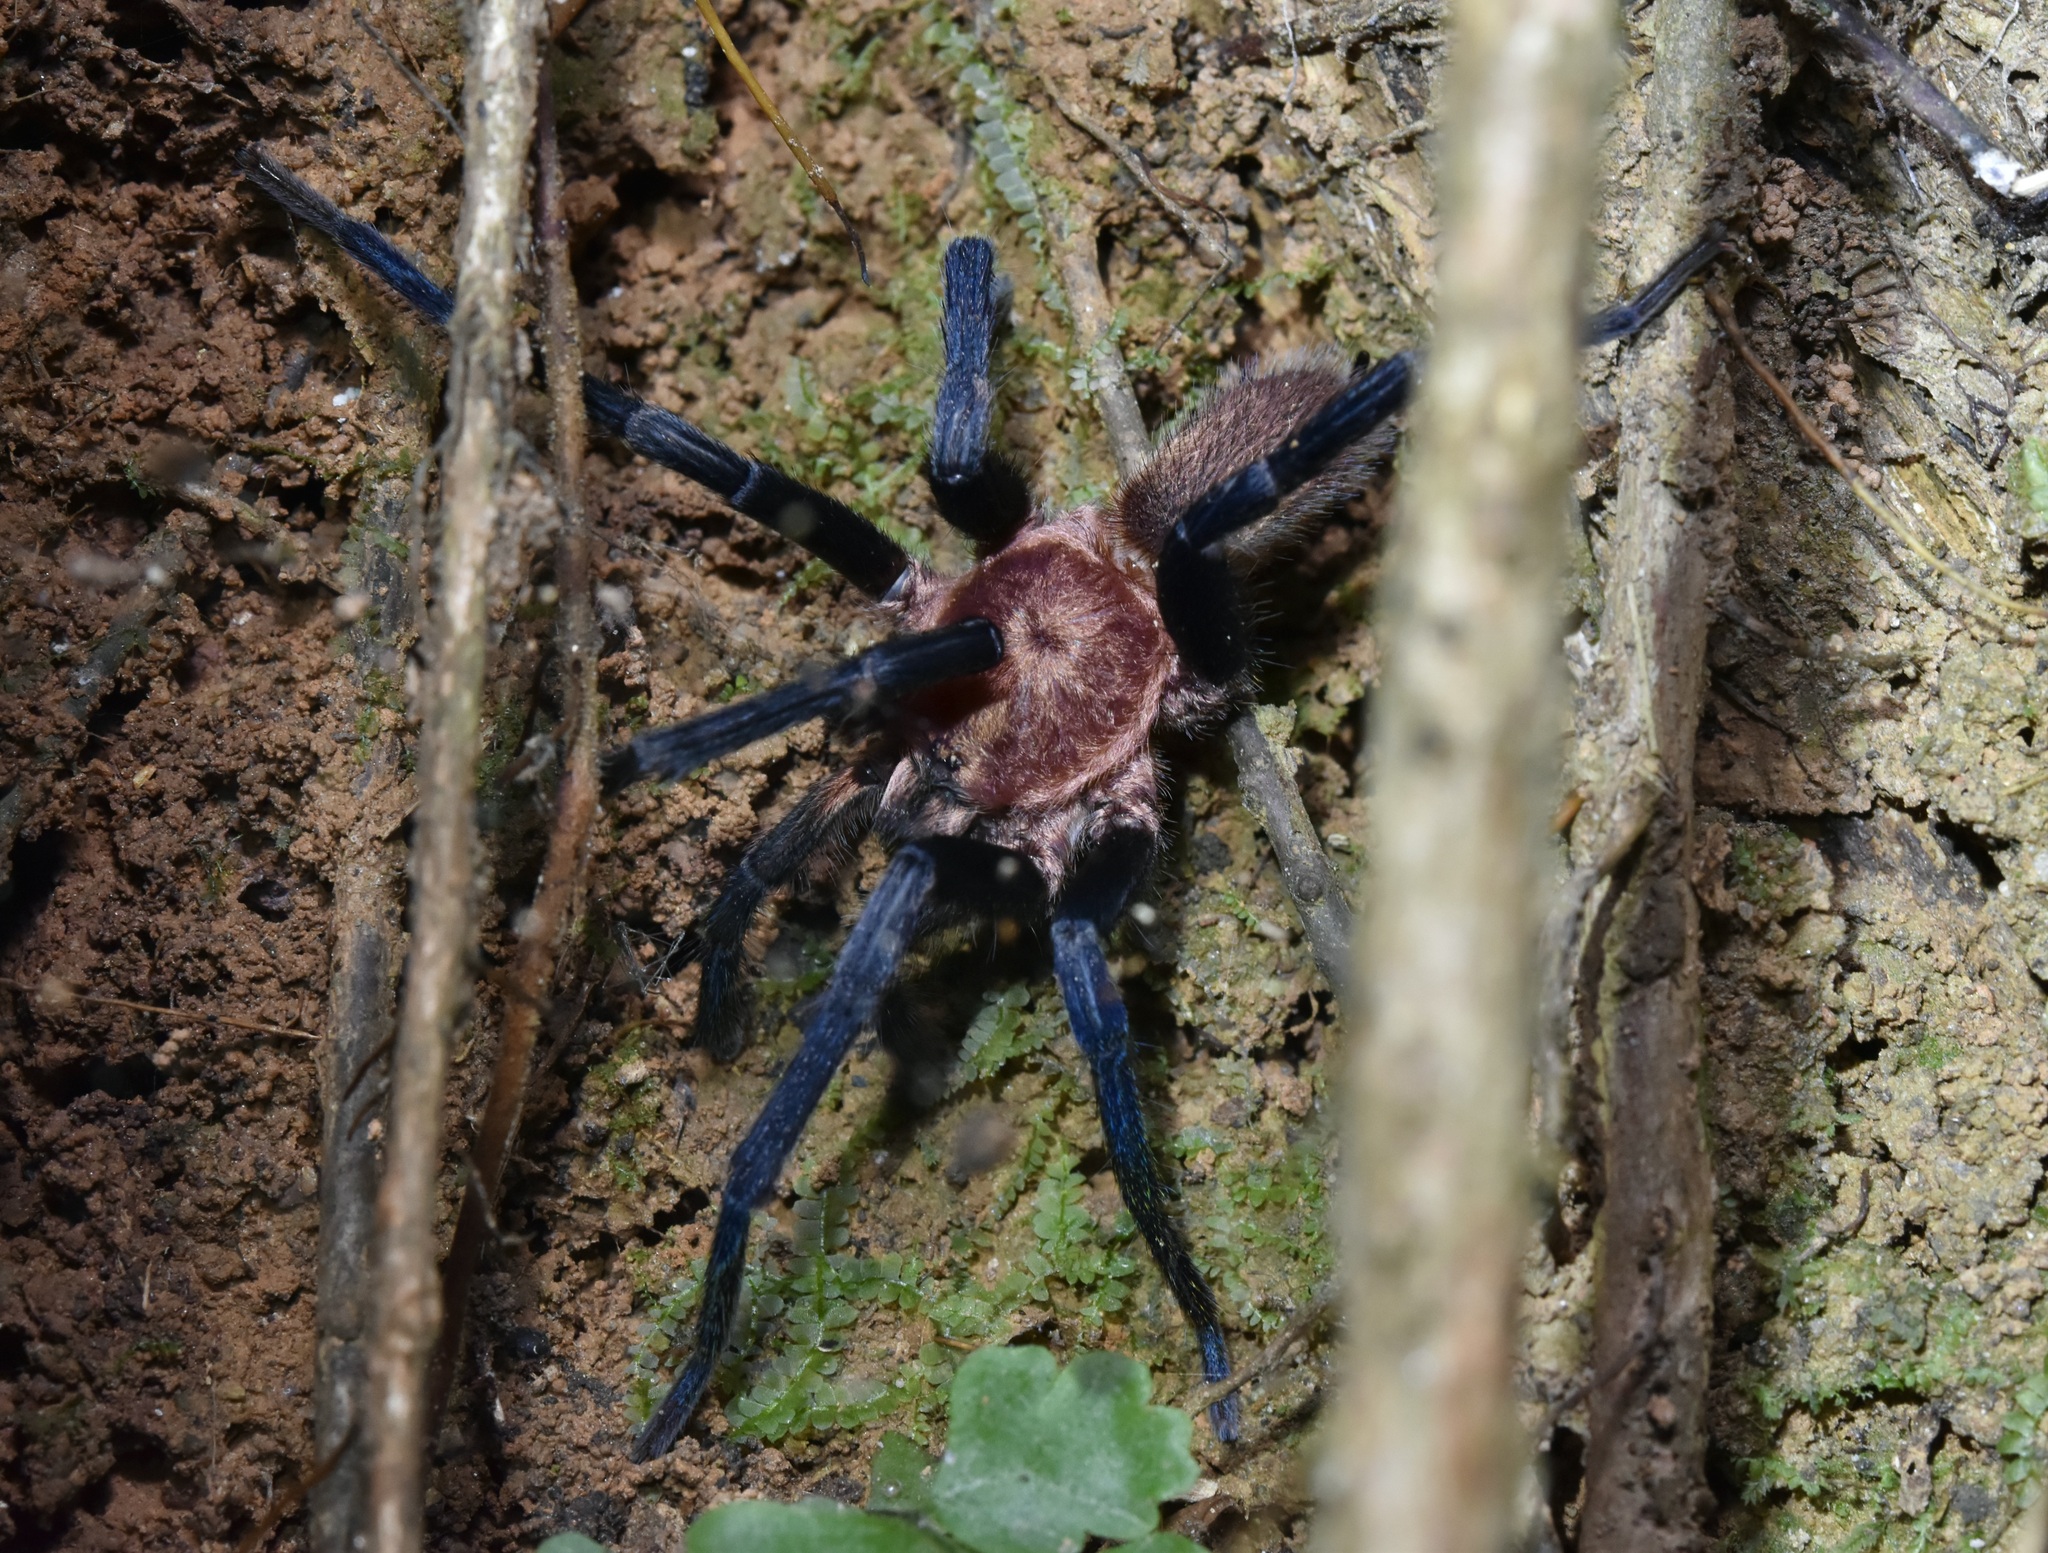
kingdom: Animalia
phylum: Arthropoda
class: Arachnida
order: Araneae
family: Theraphosidae
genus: Holothele
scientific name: Holothele longipes
